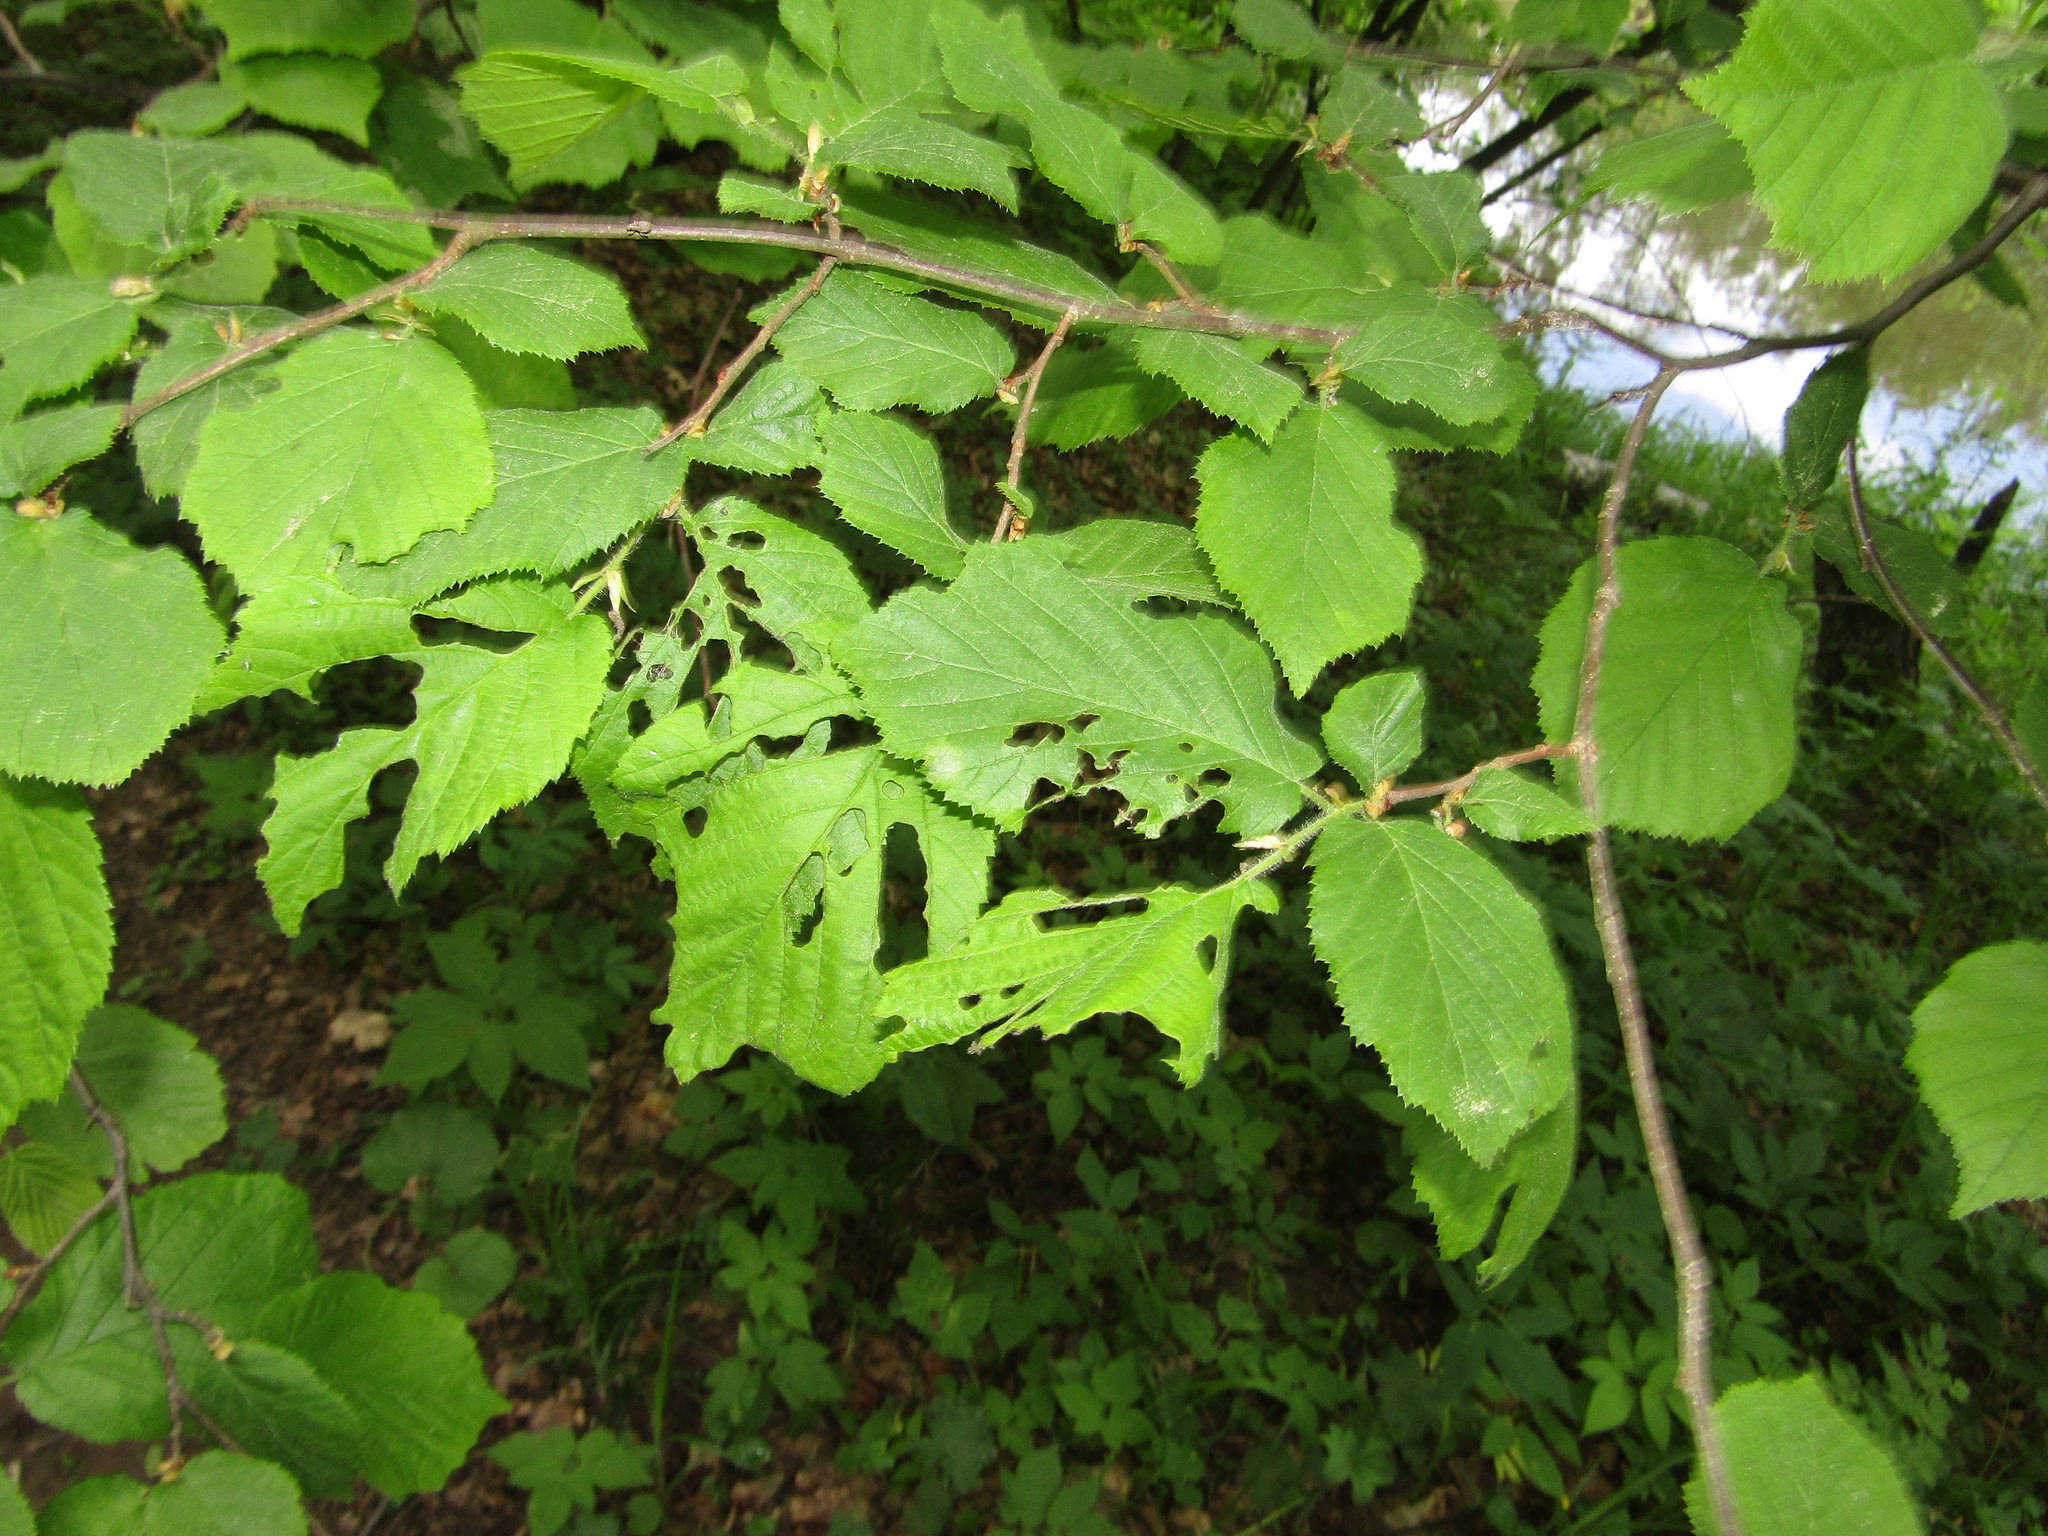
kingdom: Plantae
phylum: Tracheophyta
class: Magnoliopsida
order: Fagales
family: Betulaceae
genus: Corylus
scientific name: Corylus avellana
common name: European hazel
